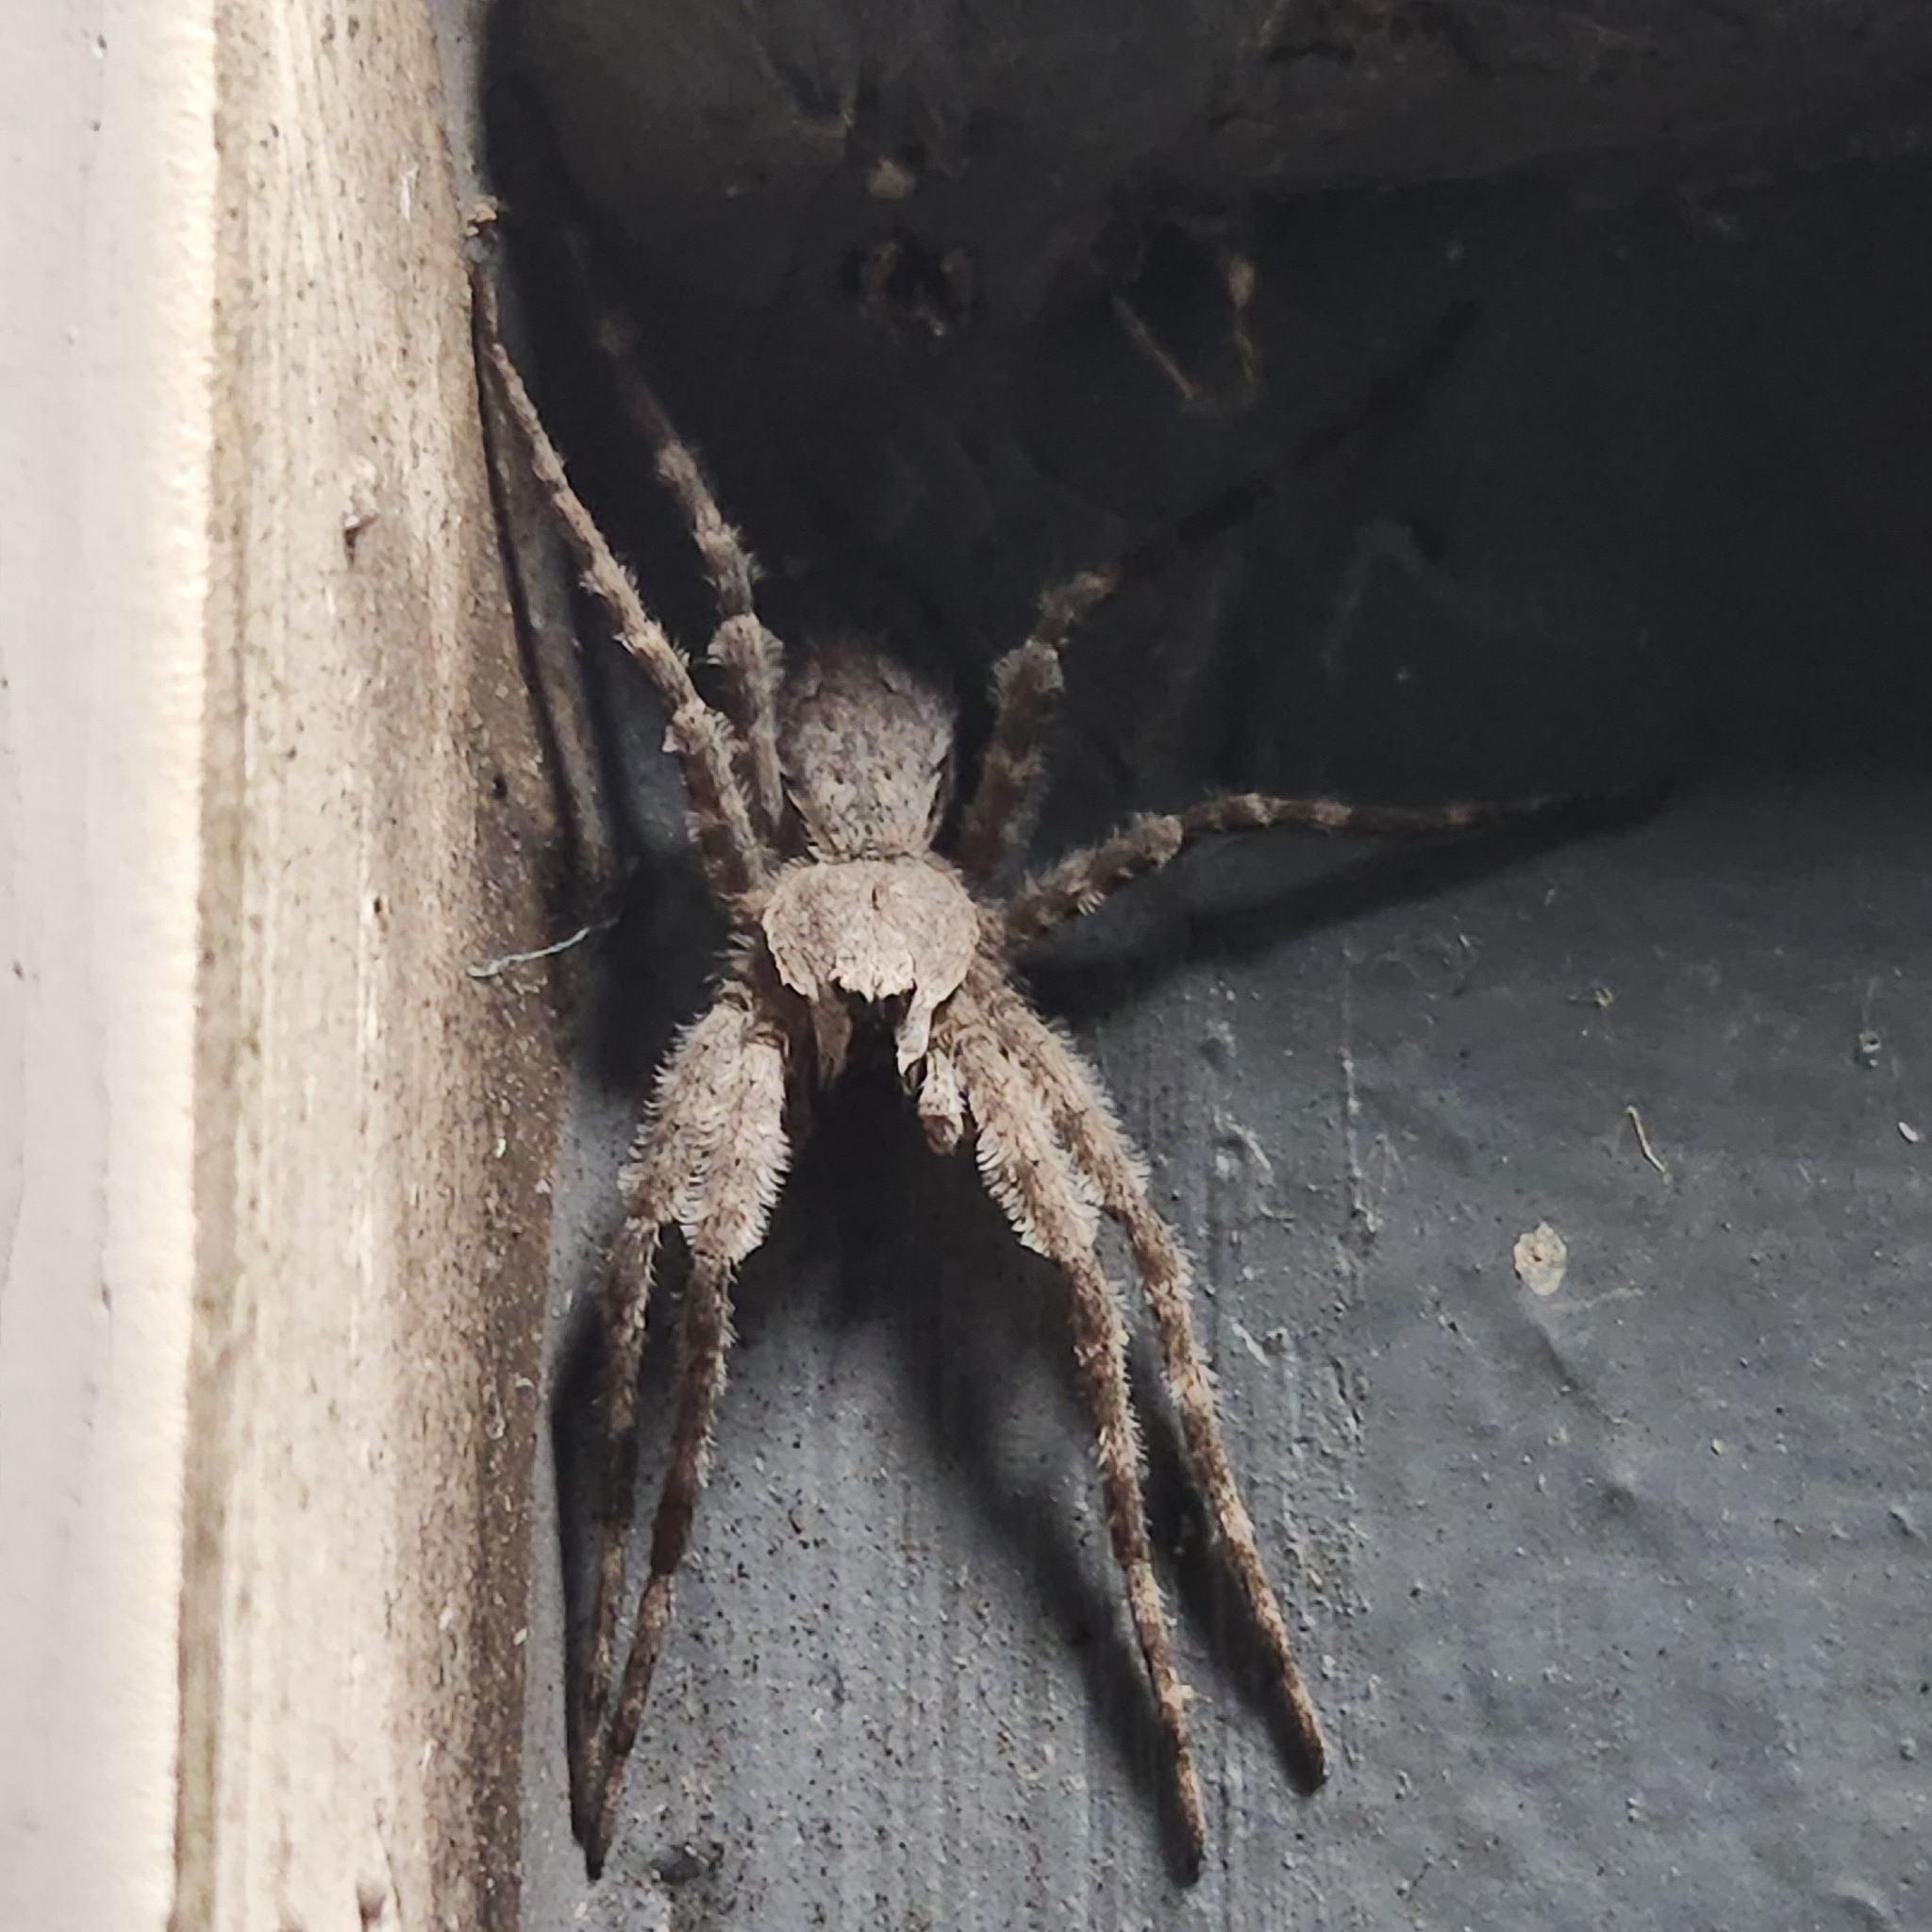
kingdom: Animalia
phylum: Arthropoda
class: Arachnida
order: Araneae
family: Pisauridae
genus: Dolomedes
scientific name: Dolomedes albineus
